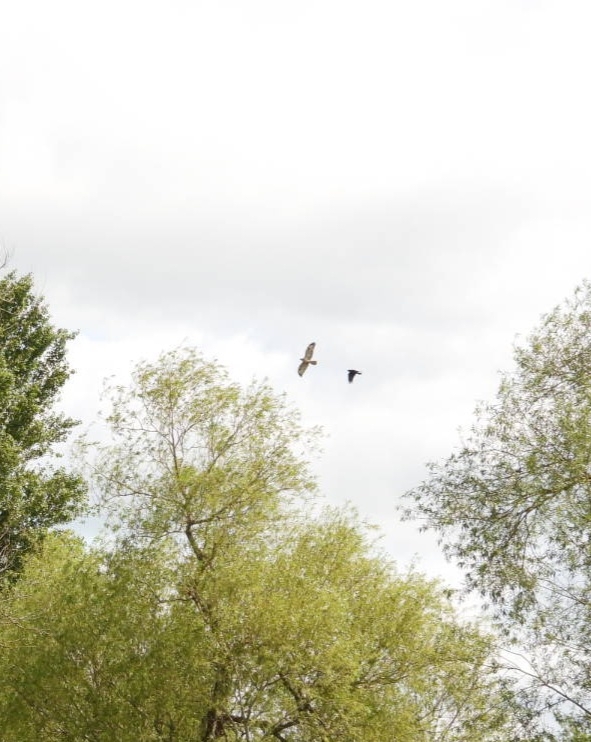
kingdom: Animalia
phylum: Chordata
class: Aves
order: Accipitriformes
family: Accipitridae
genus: Buteo
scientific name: Buteo buteo
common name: Common buzzard
